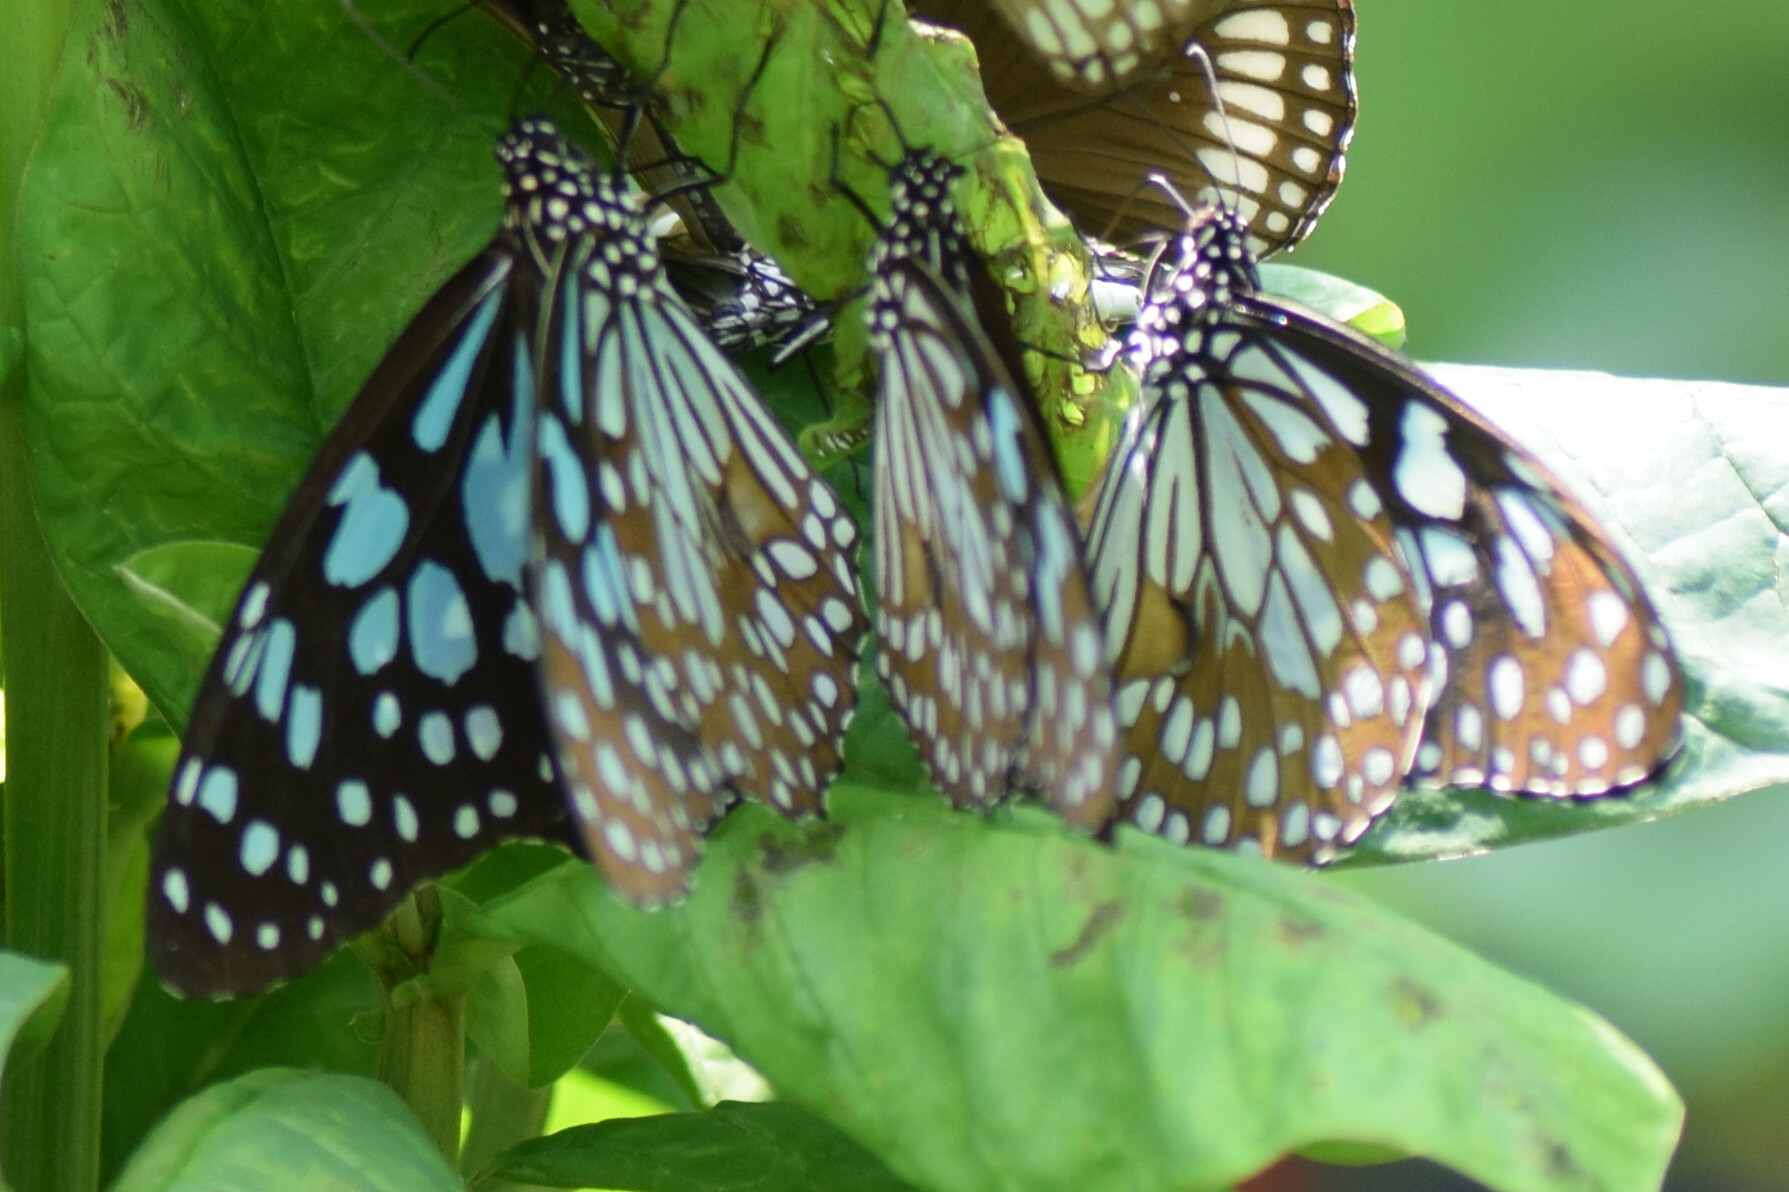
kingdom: Animalia
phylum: Arthropoda
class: Insecta
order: Lepidoptera
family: Nymphalidae
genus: Tirumala
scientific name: Tirumala limniace
